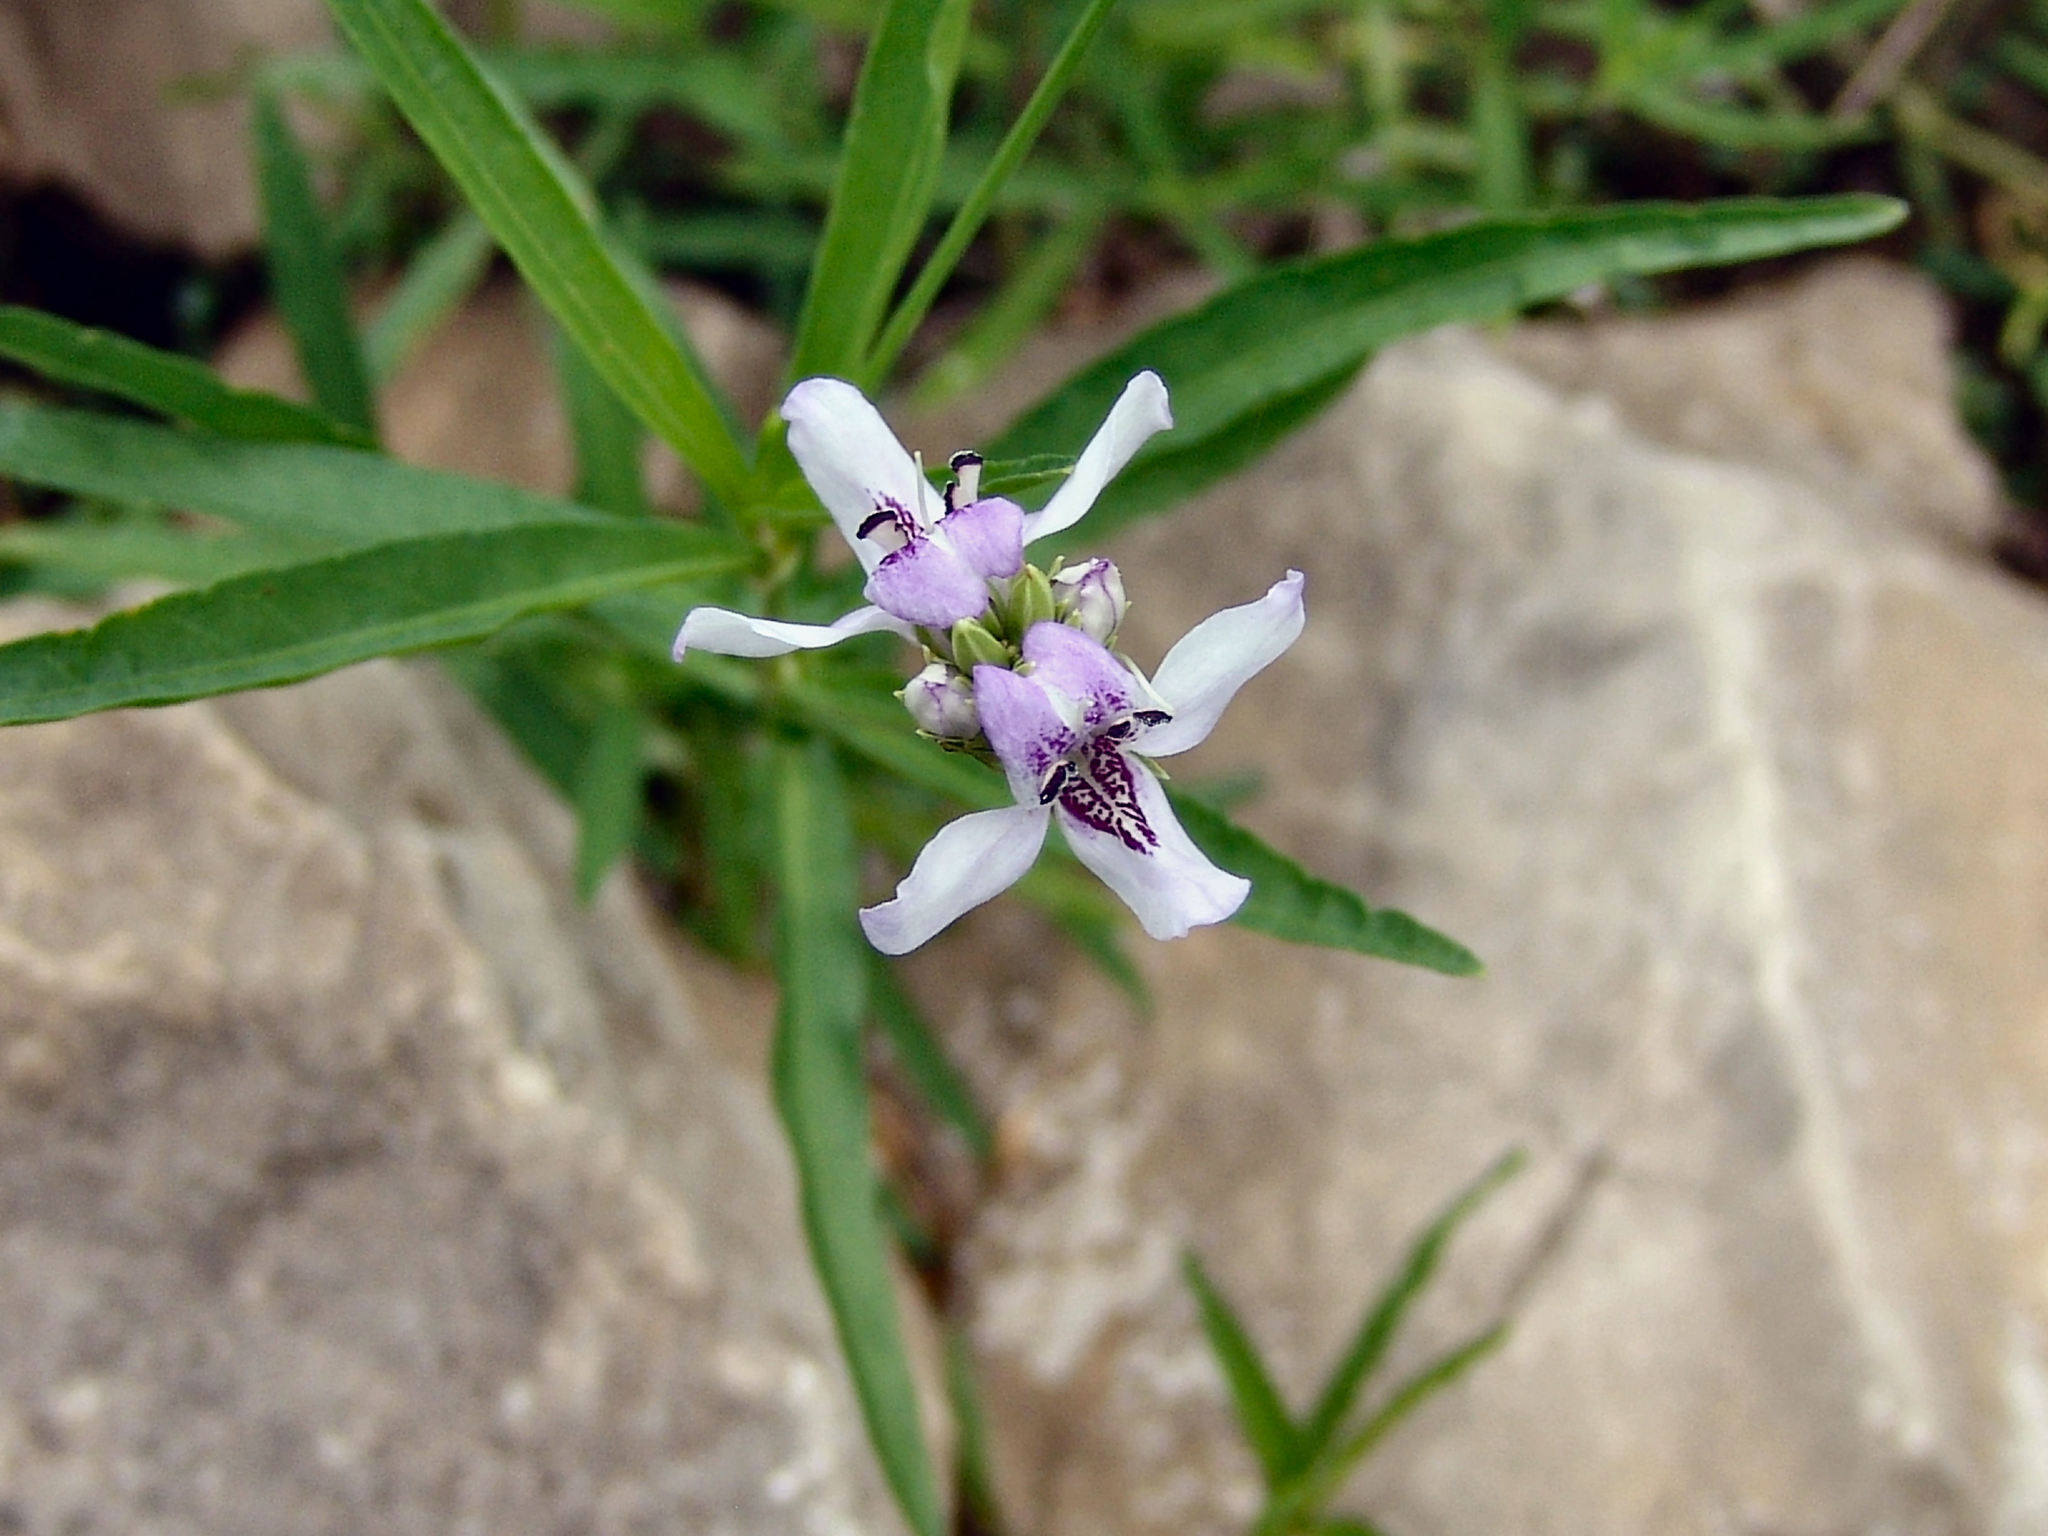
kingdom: Plantae
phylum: Tracheophyta
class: Magnoliopsida
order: Lamiales
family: Acanthaceae
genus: Dianthera
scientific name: Dianthera americana
